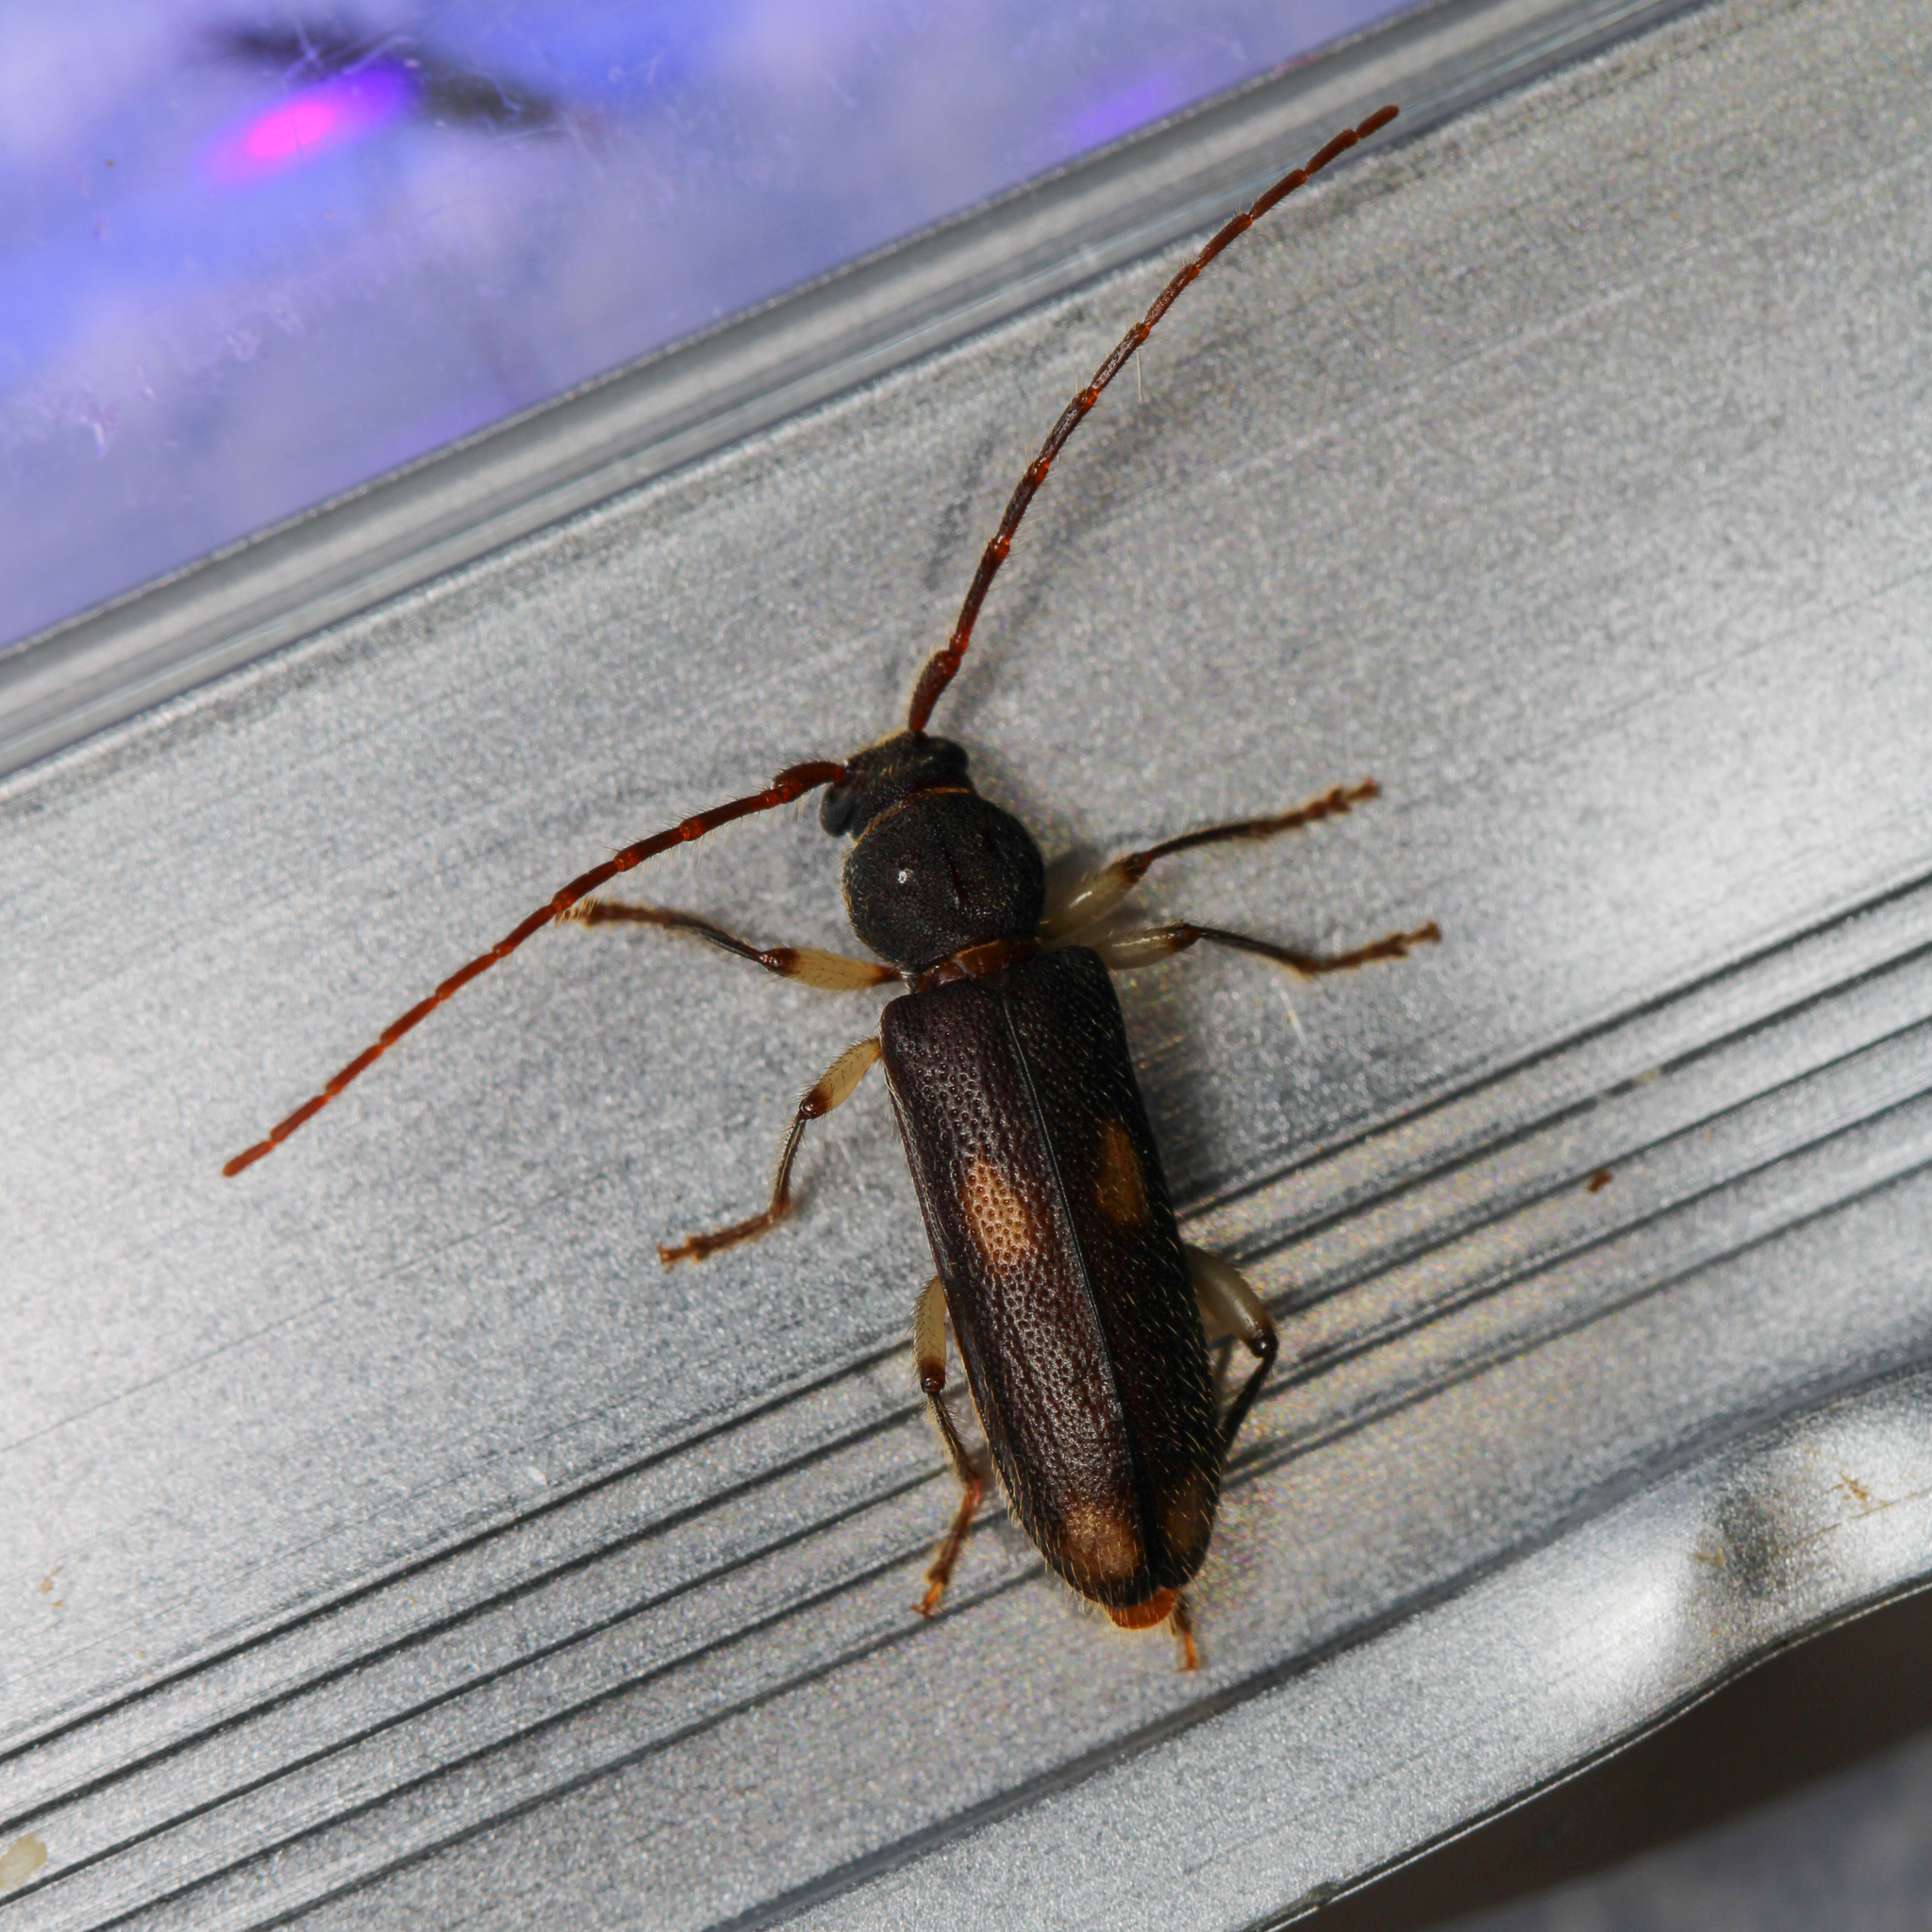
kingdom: Animalia
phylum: Arthropoda
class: Insecta
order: Coleoptera
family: Cerambycidae
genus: Tylonotus
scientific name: Tylonotus bimaculatus
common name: Ash and privet borer
